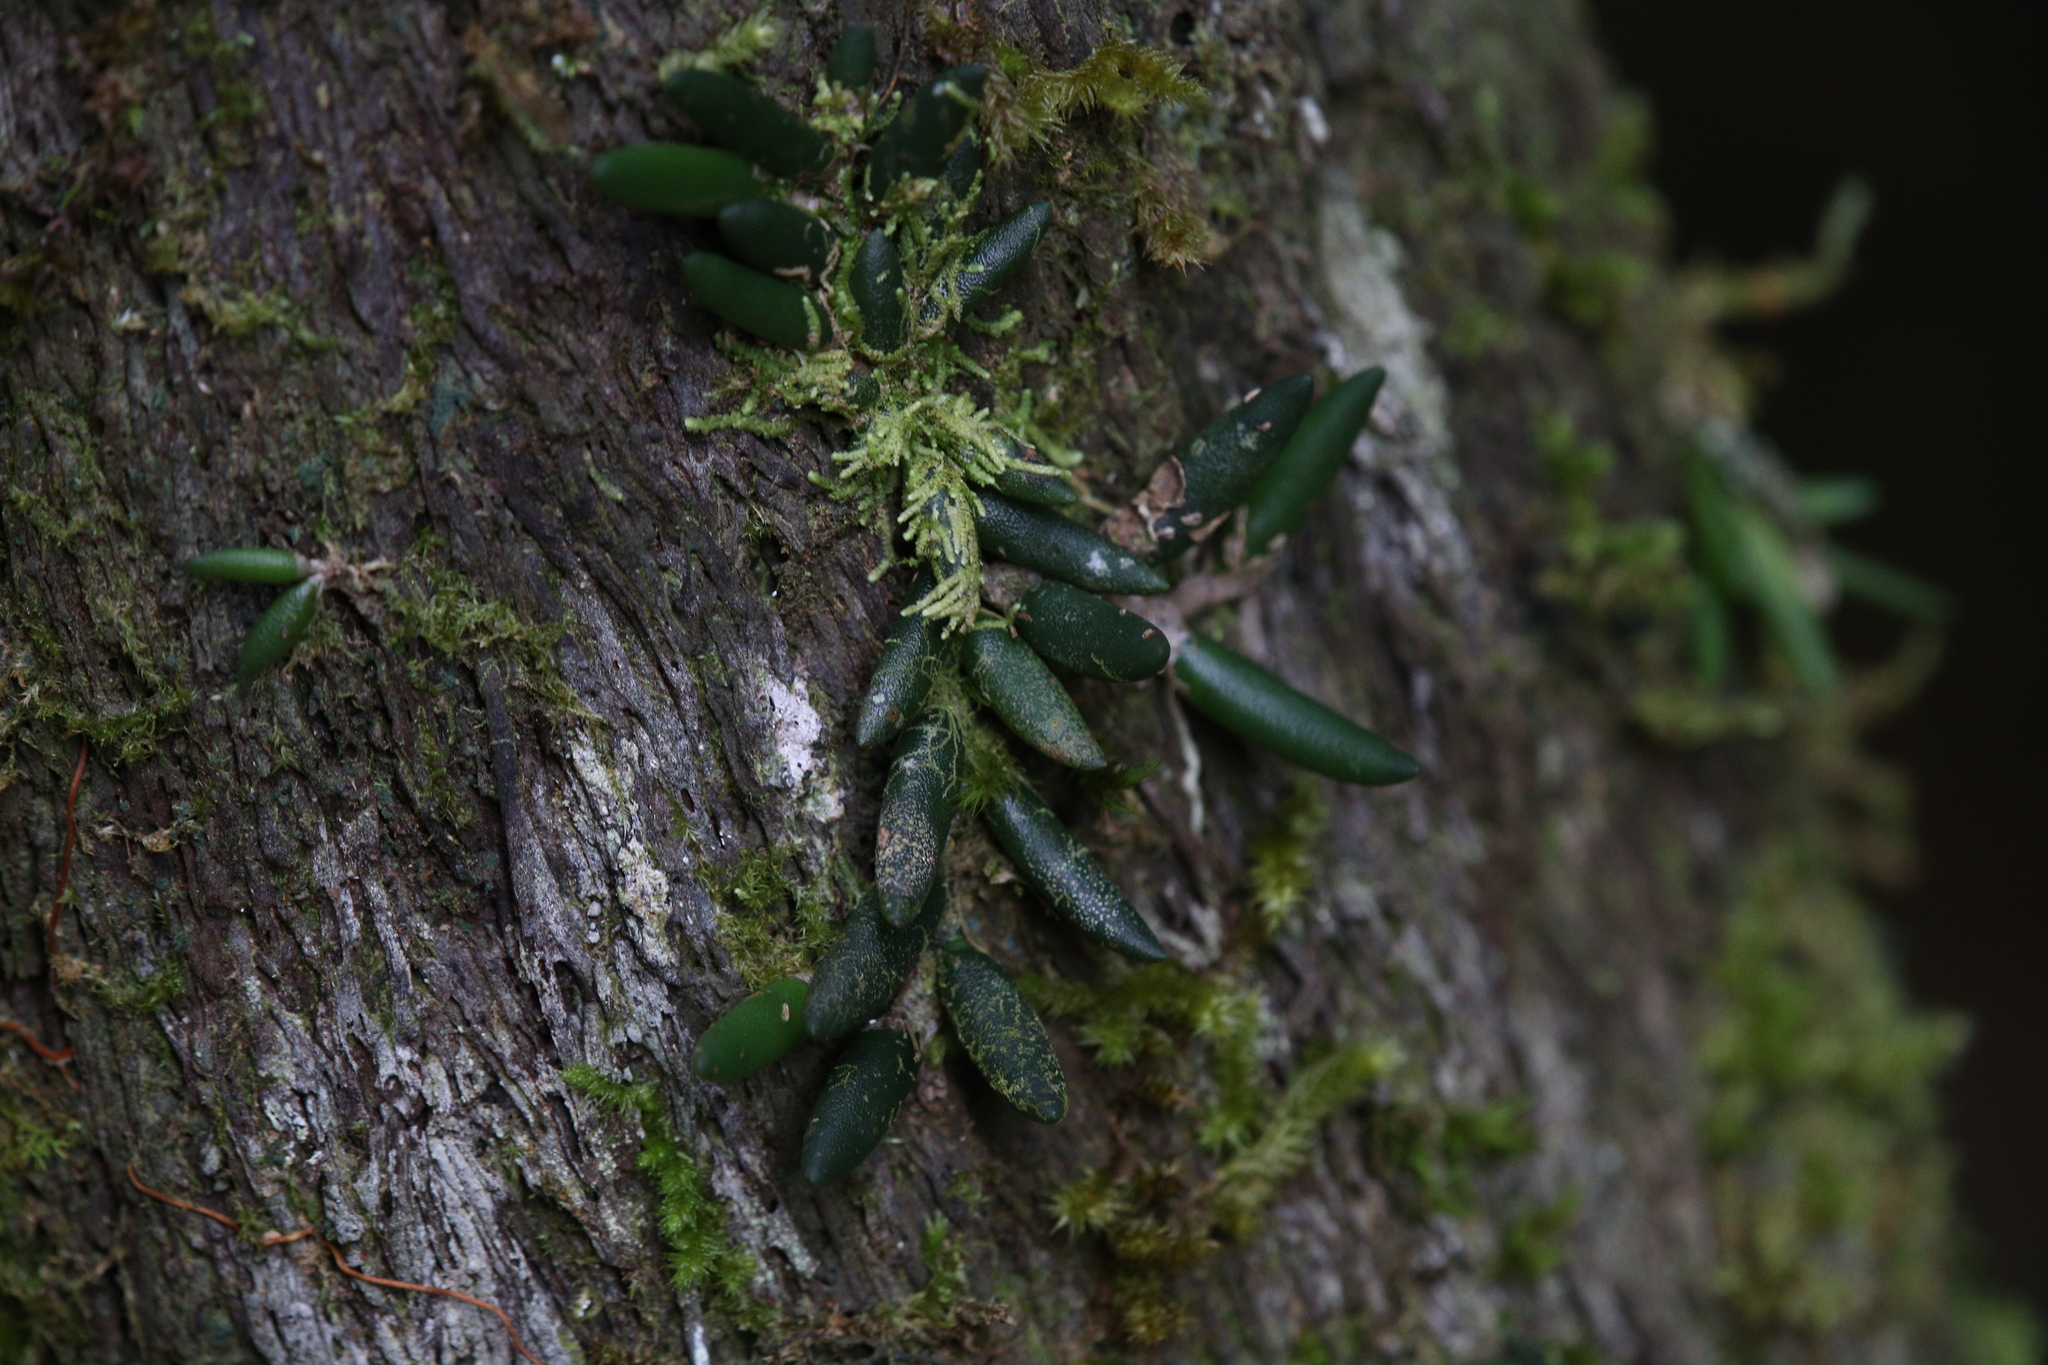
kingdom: Plantae
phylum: Tracheophyta
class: Liliopsida
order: Asparagales
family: Orchidaceae
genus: Dendrobium
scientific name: Dendrobium lichenastrum
